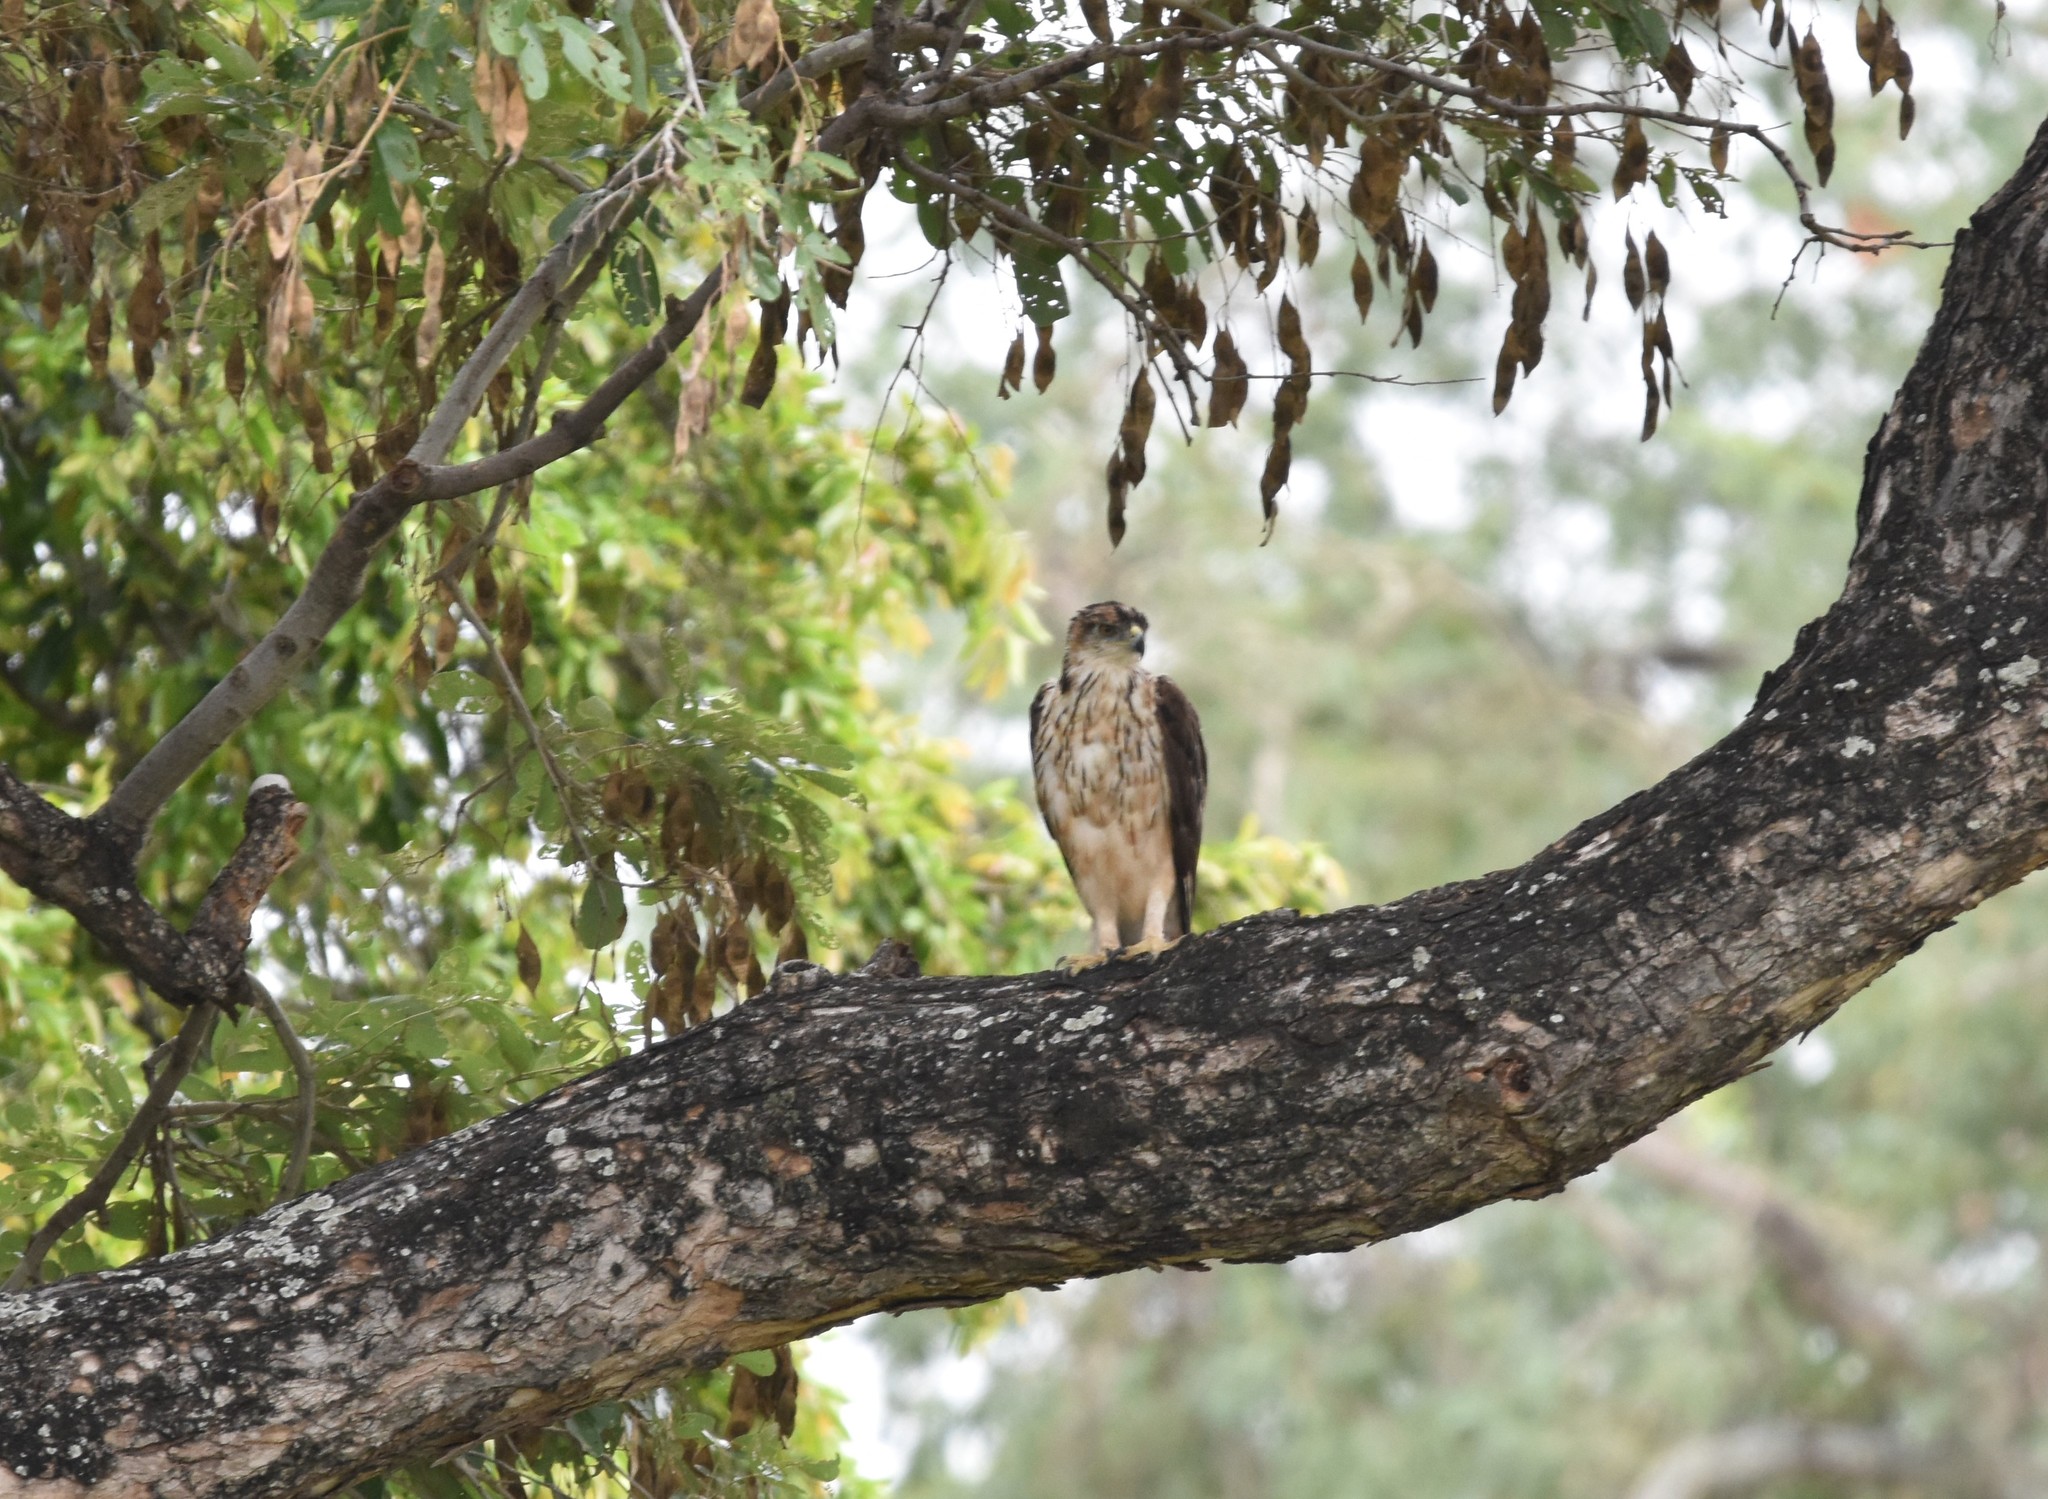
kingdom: Animalia
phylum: Chordata
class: Aves
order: Accipitriformes
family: Accipitridae
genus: Aquila
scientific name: Aquila spilogaster
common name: African hawk-eagle
